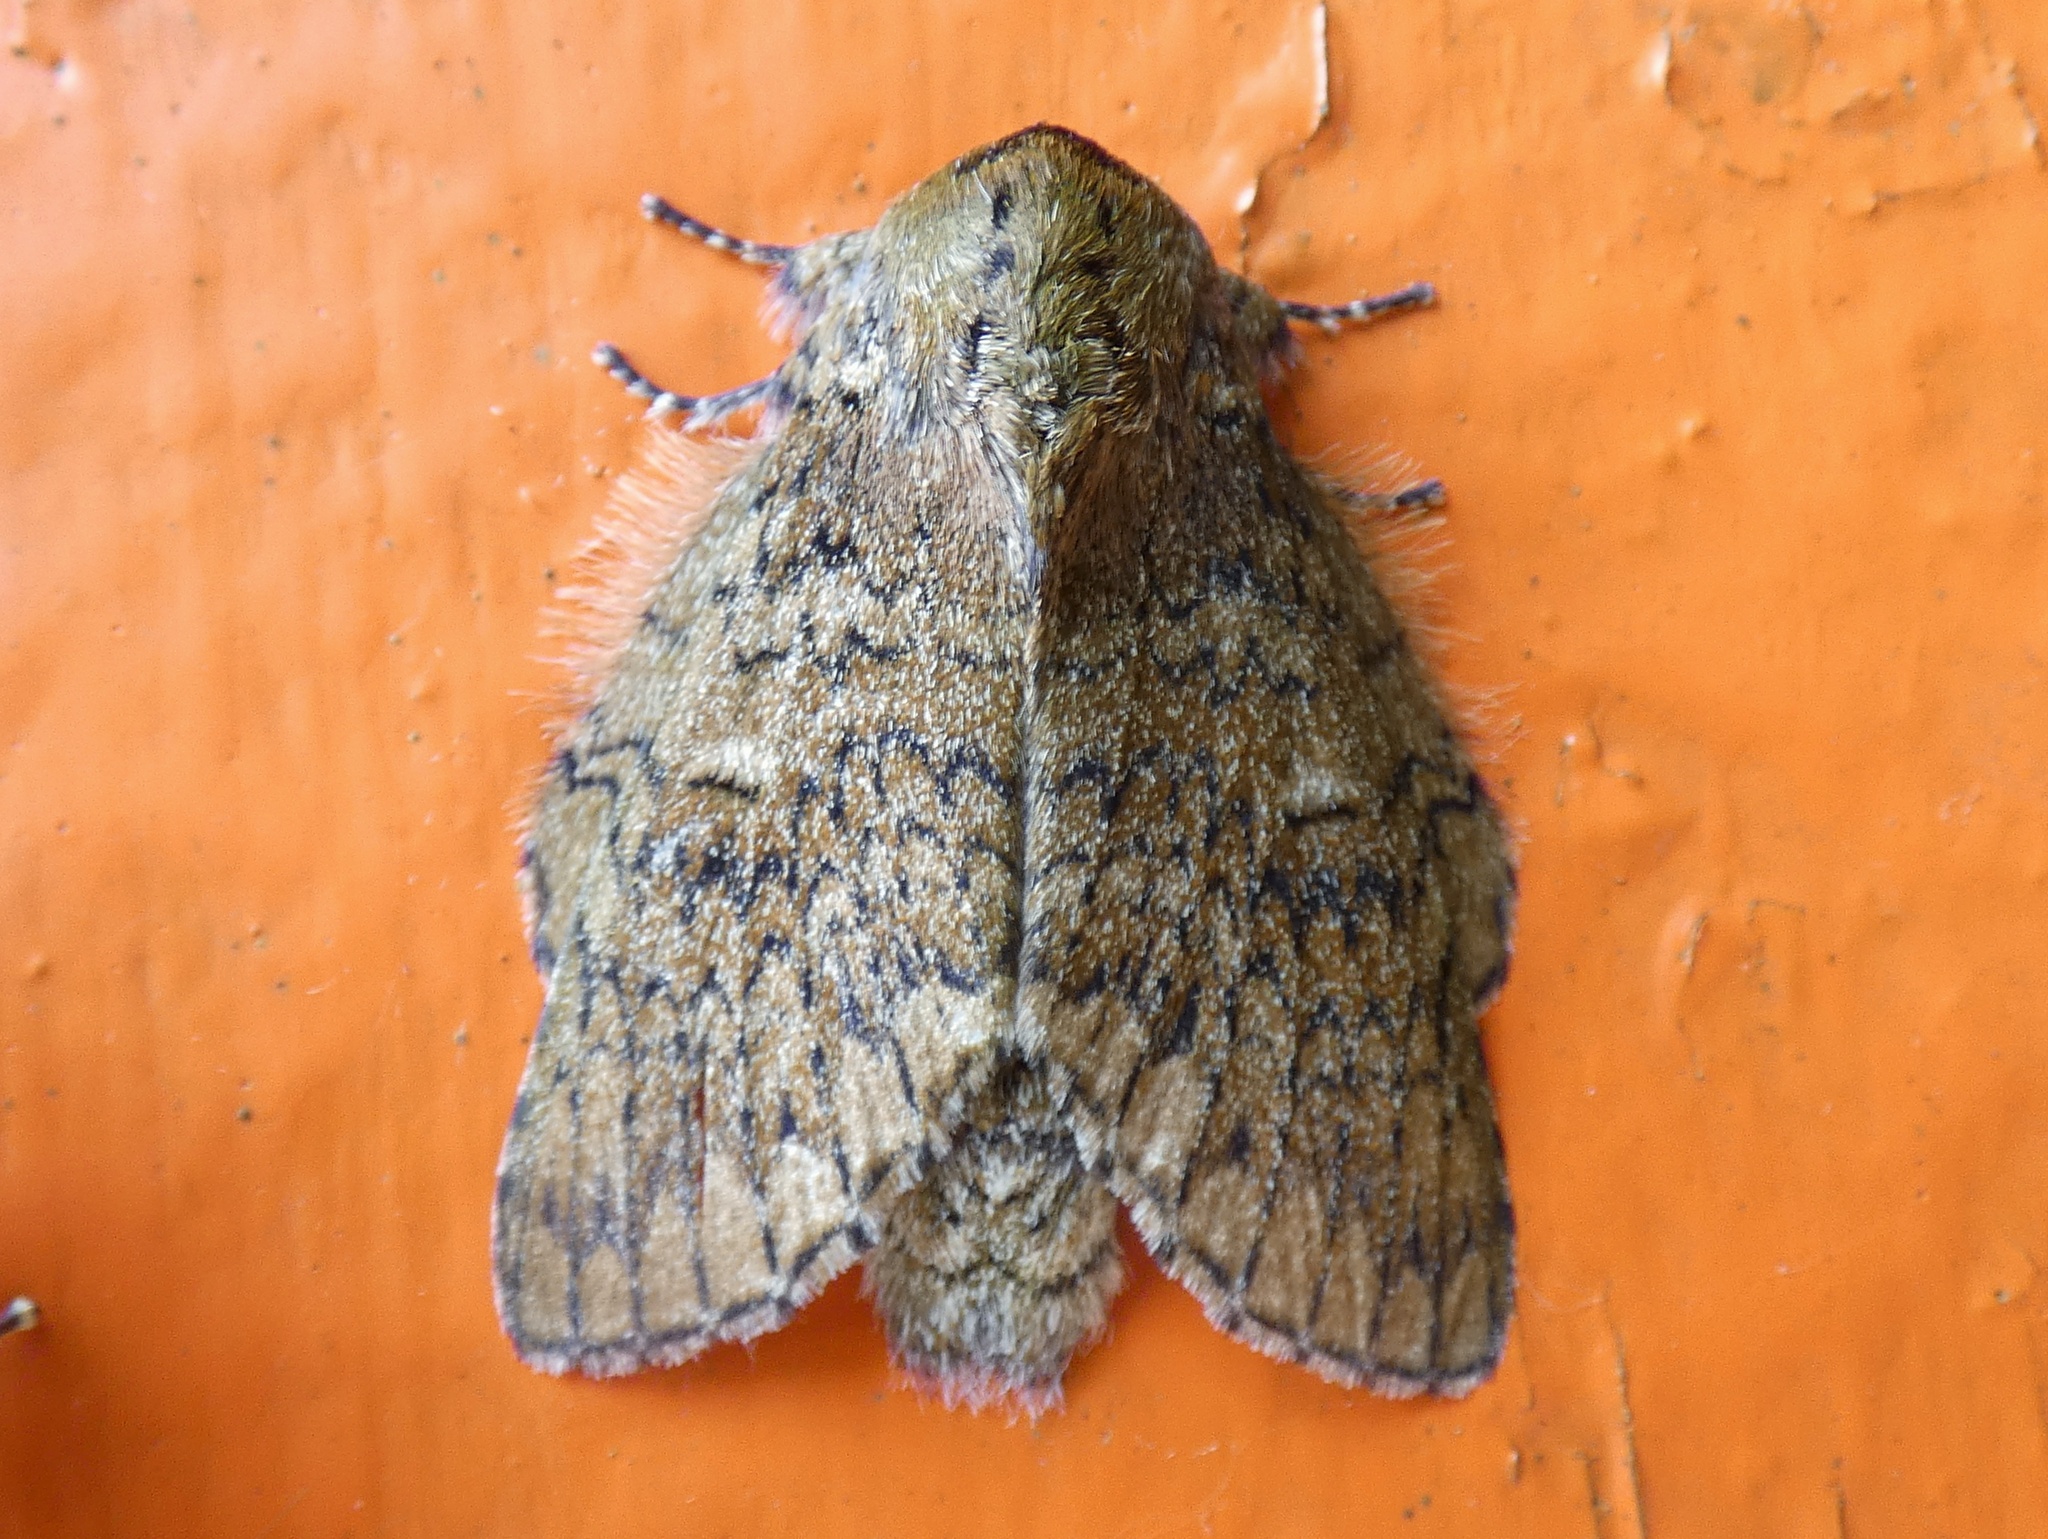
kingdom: Animalia
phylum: Arthropoda
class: Insecta
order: Lepidoptera
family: Notodontidae
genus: Disphragis
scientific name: Disphragis remuria
